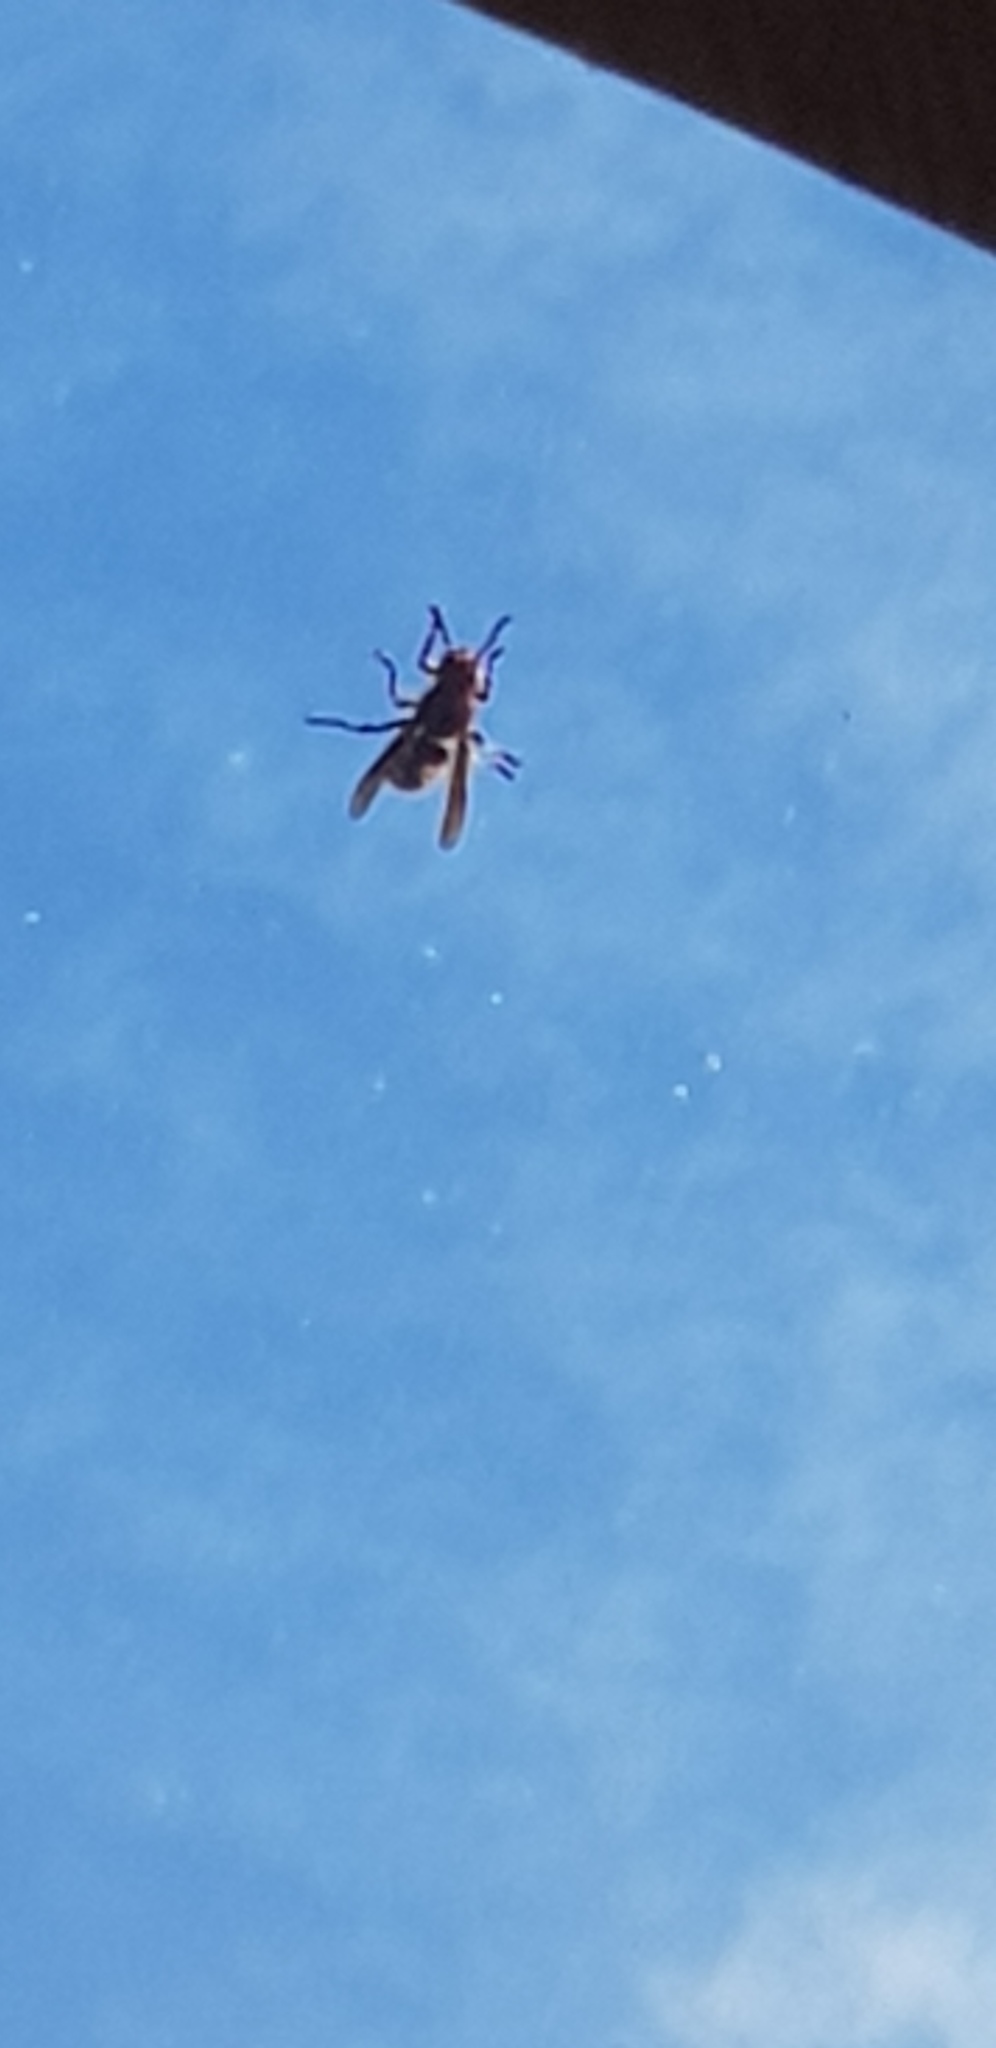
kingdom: Animalia
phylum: Arthropoda
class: Insecta
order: Hymenoptera
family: Vespidae
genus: Vespa
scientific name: Vespa crabro
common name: Hornet
